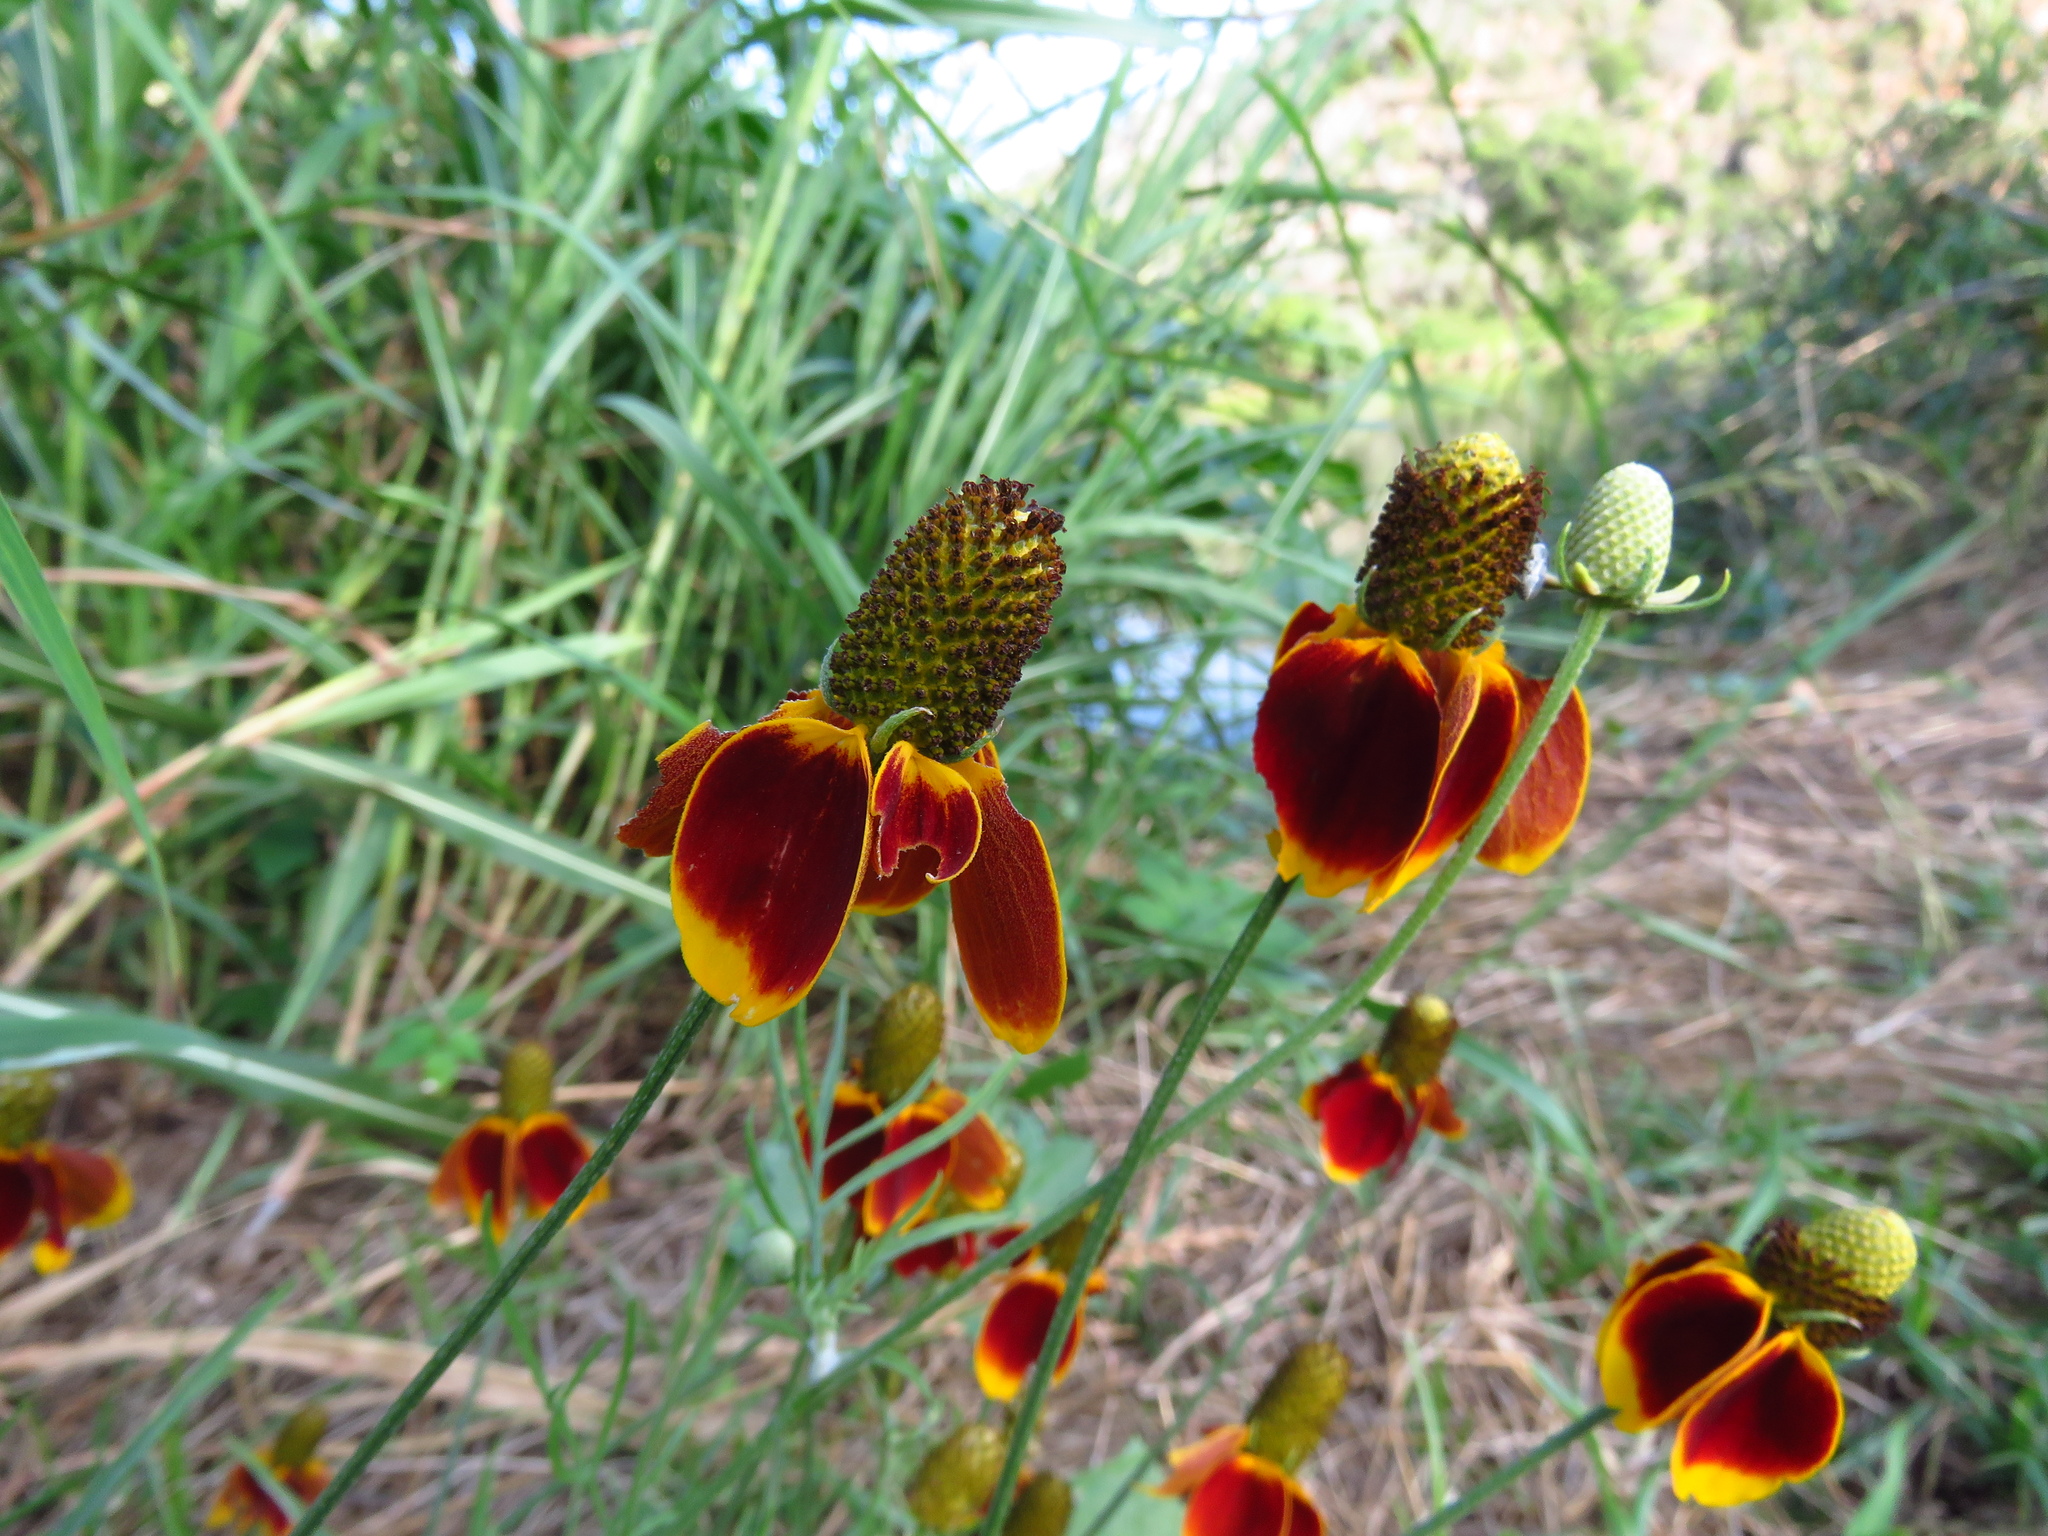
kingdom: Plantae
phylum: Tracheophyta
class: Magnoliopsida
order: Asterales
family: Asteraceae
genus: Ratibida
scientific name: Ratibida columnifera
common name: Prairie coneflower
